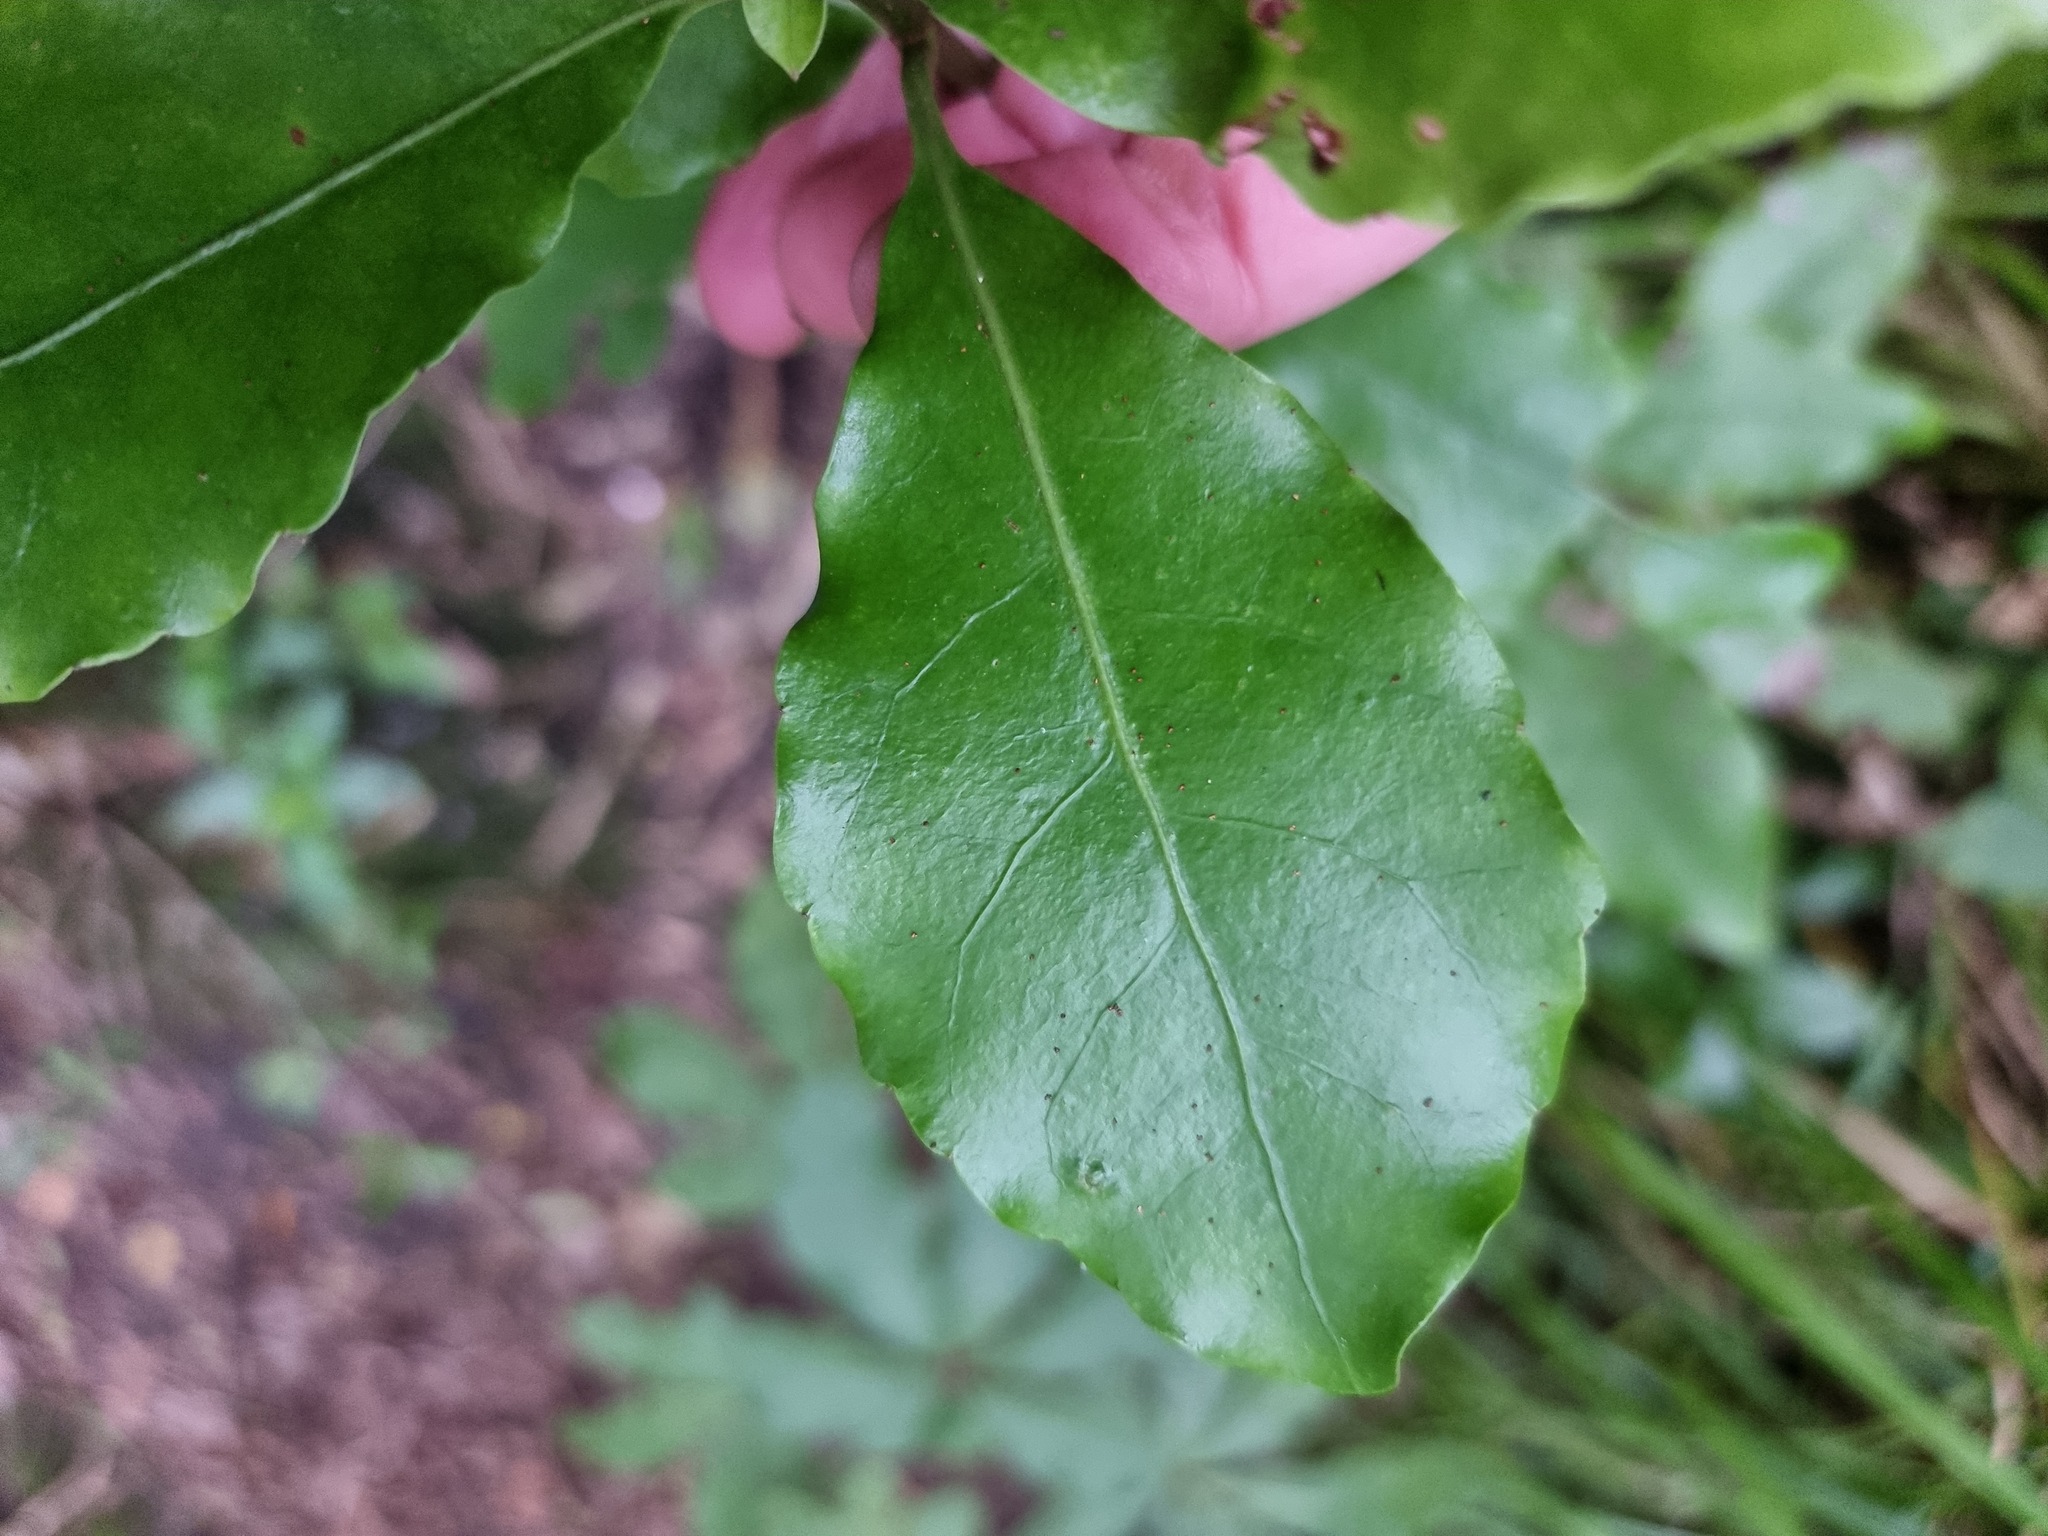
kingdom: Plantae
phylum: Tracheophyta
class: Magnoliopsida
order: Asterales
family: Alseuosmiaceae
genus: Alseuosmia
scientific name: Alseuosmia macrophylla
